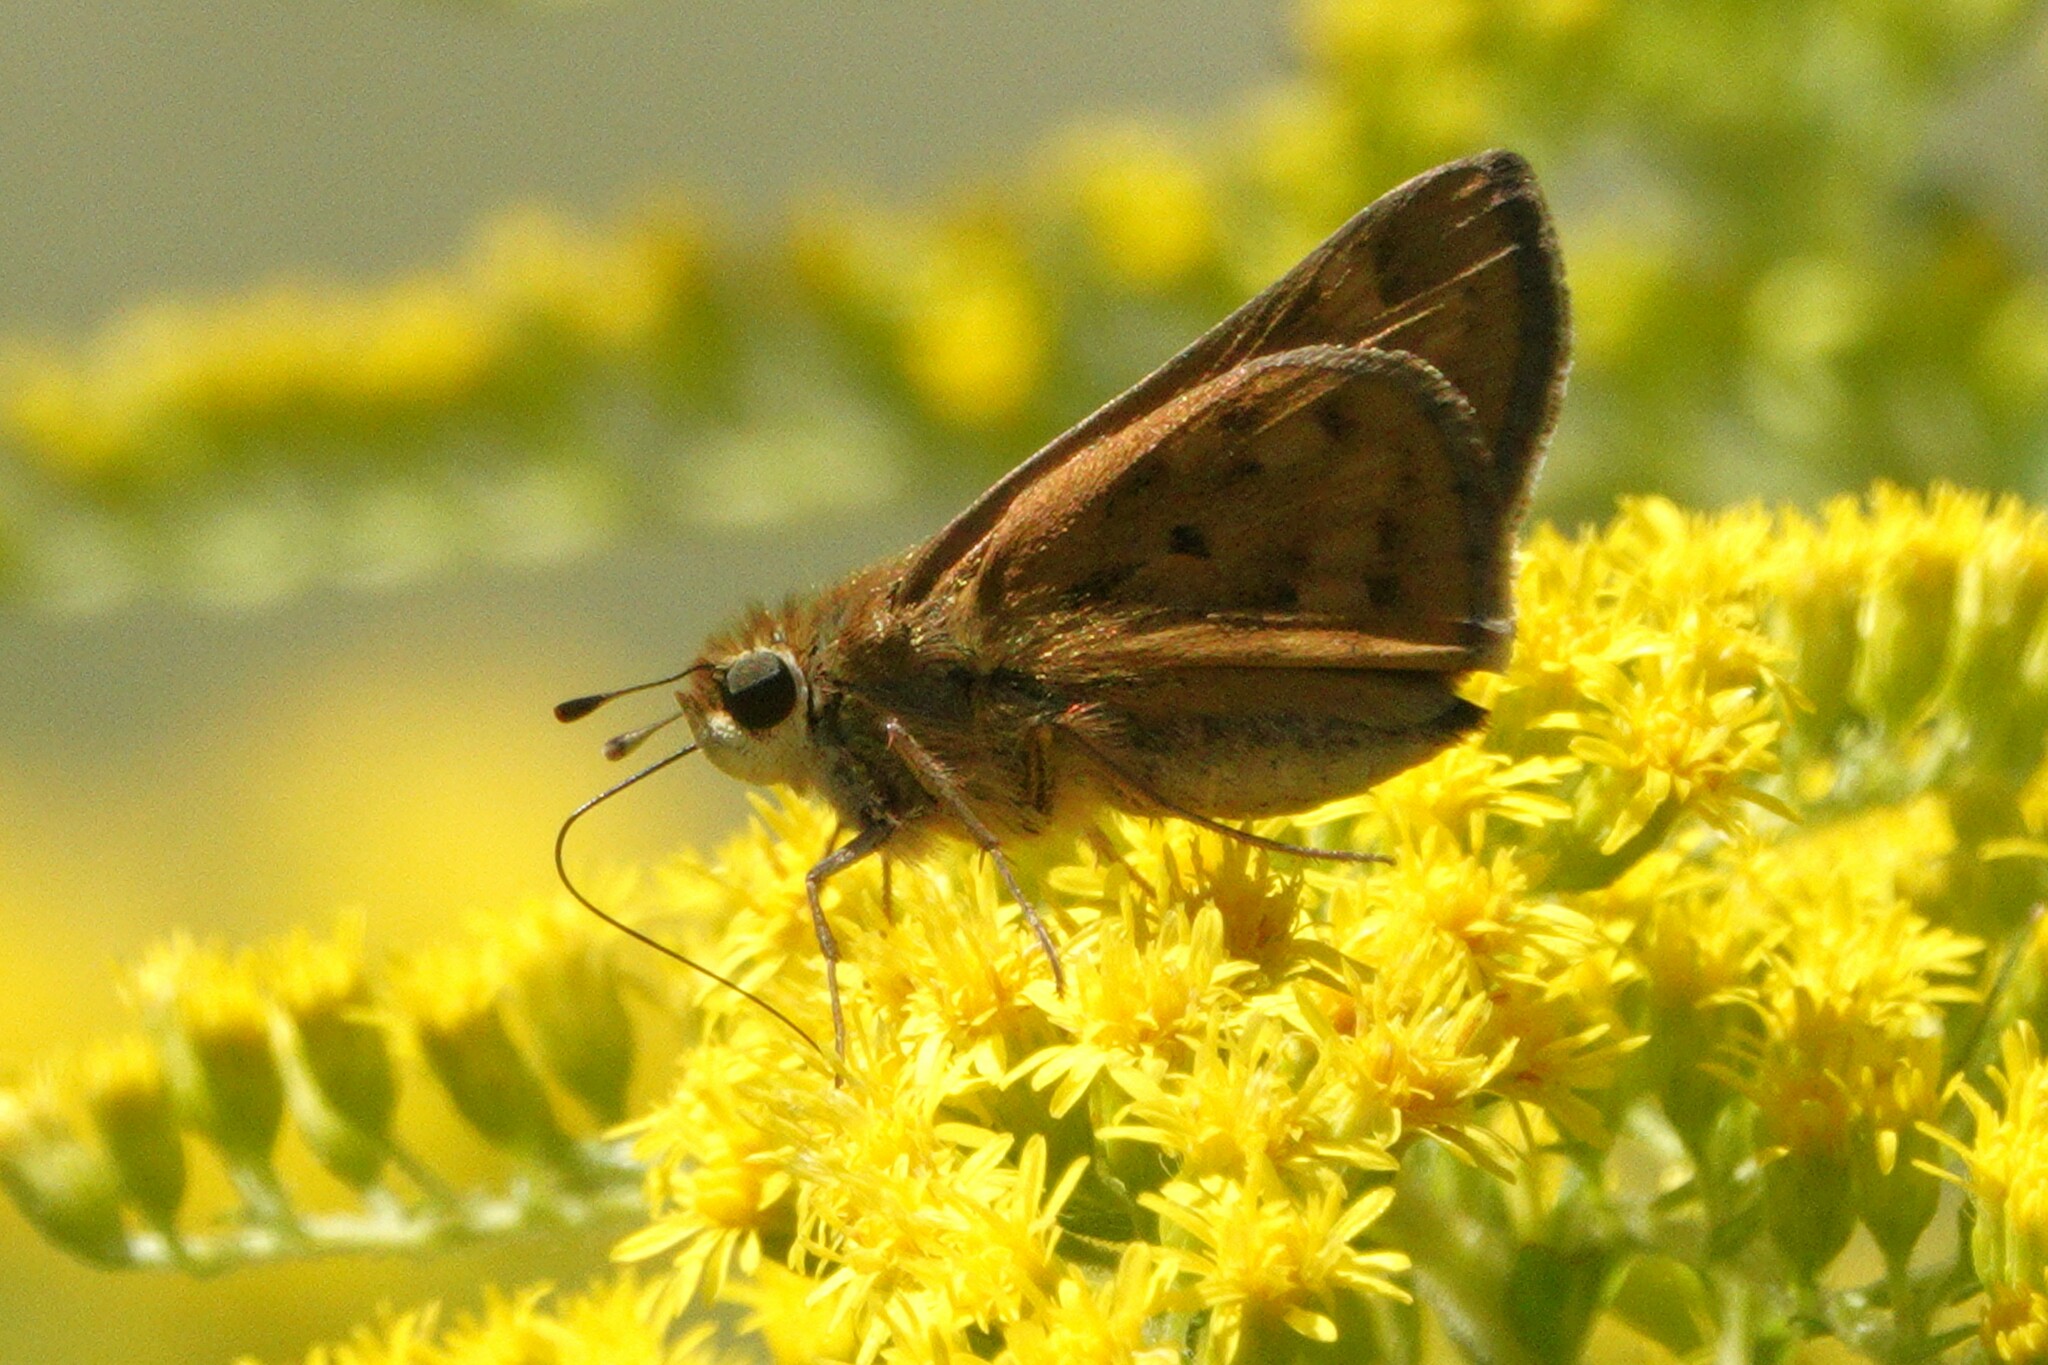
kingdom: Animalia
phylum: Arthropoda
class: Insecta
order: Lepidoptera
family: Hesperiidae
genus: Hylephila
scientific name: Hylephila phyleus
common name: Fiery skipper
